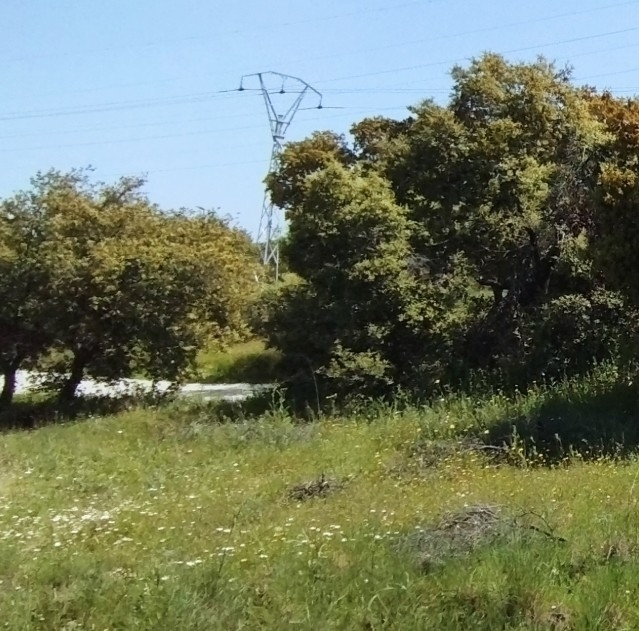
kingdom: Plantae
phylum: Tracheophyta
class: Magnoliopsida
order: Fagales
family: Fagaceae
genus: Quercus
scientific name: Quercus rotundifolia
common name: Holm oak
